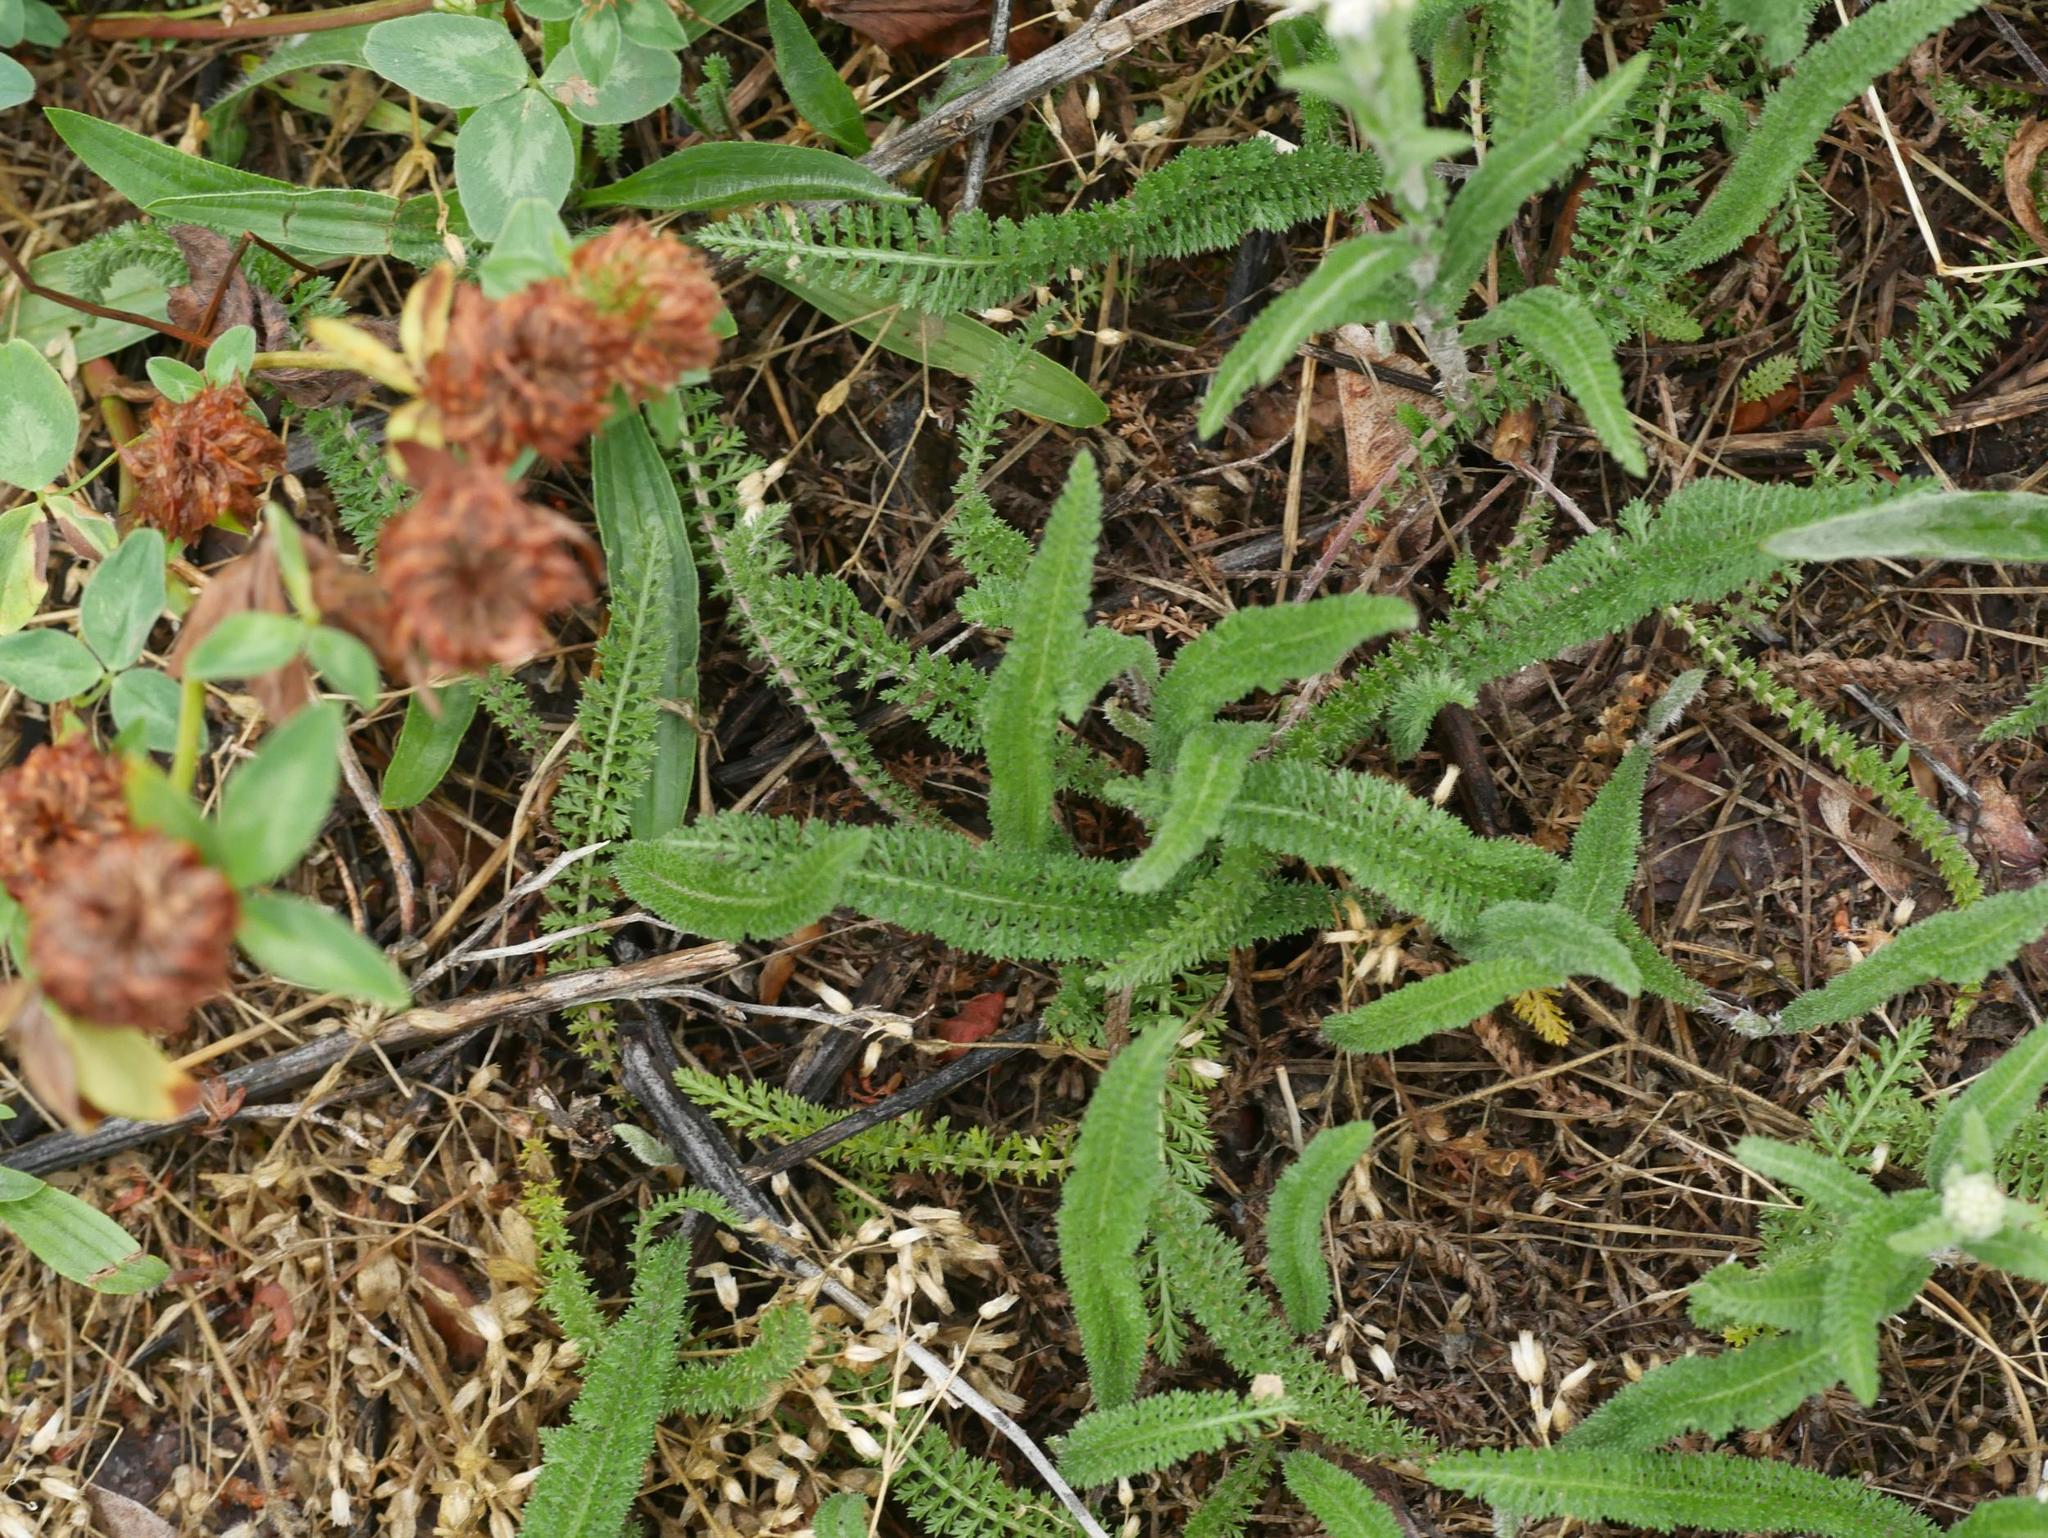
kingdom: Plantae
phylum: Tracheophyta
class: Magnoliopsida
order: Asterales
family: Asteraceae
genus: Achillea
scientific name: Achillea millefolium
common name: Yarrow
